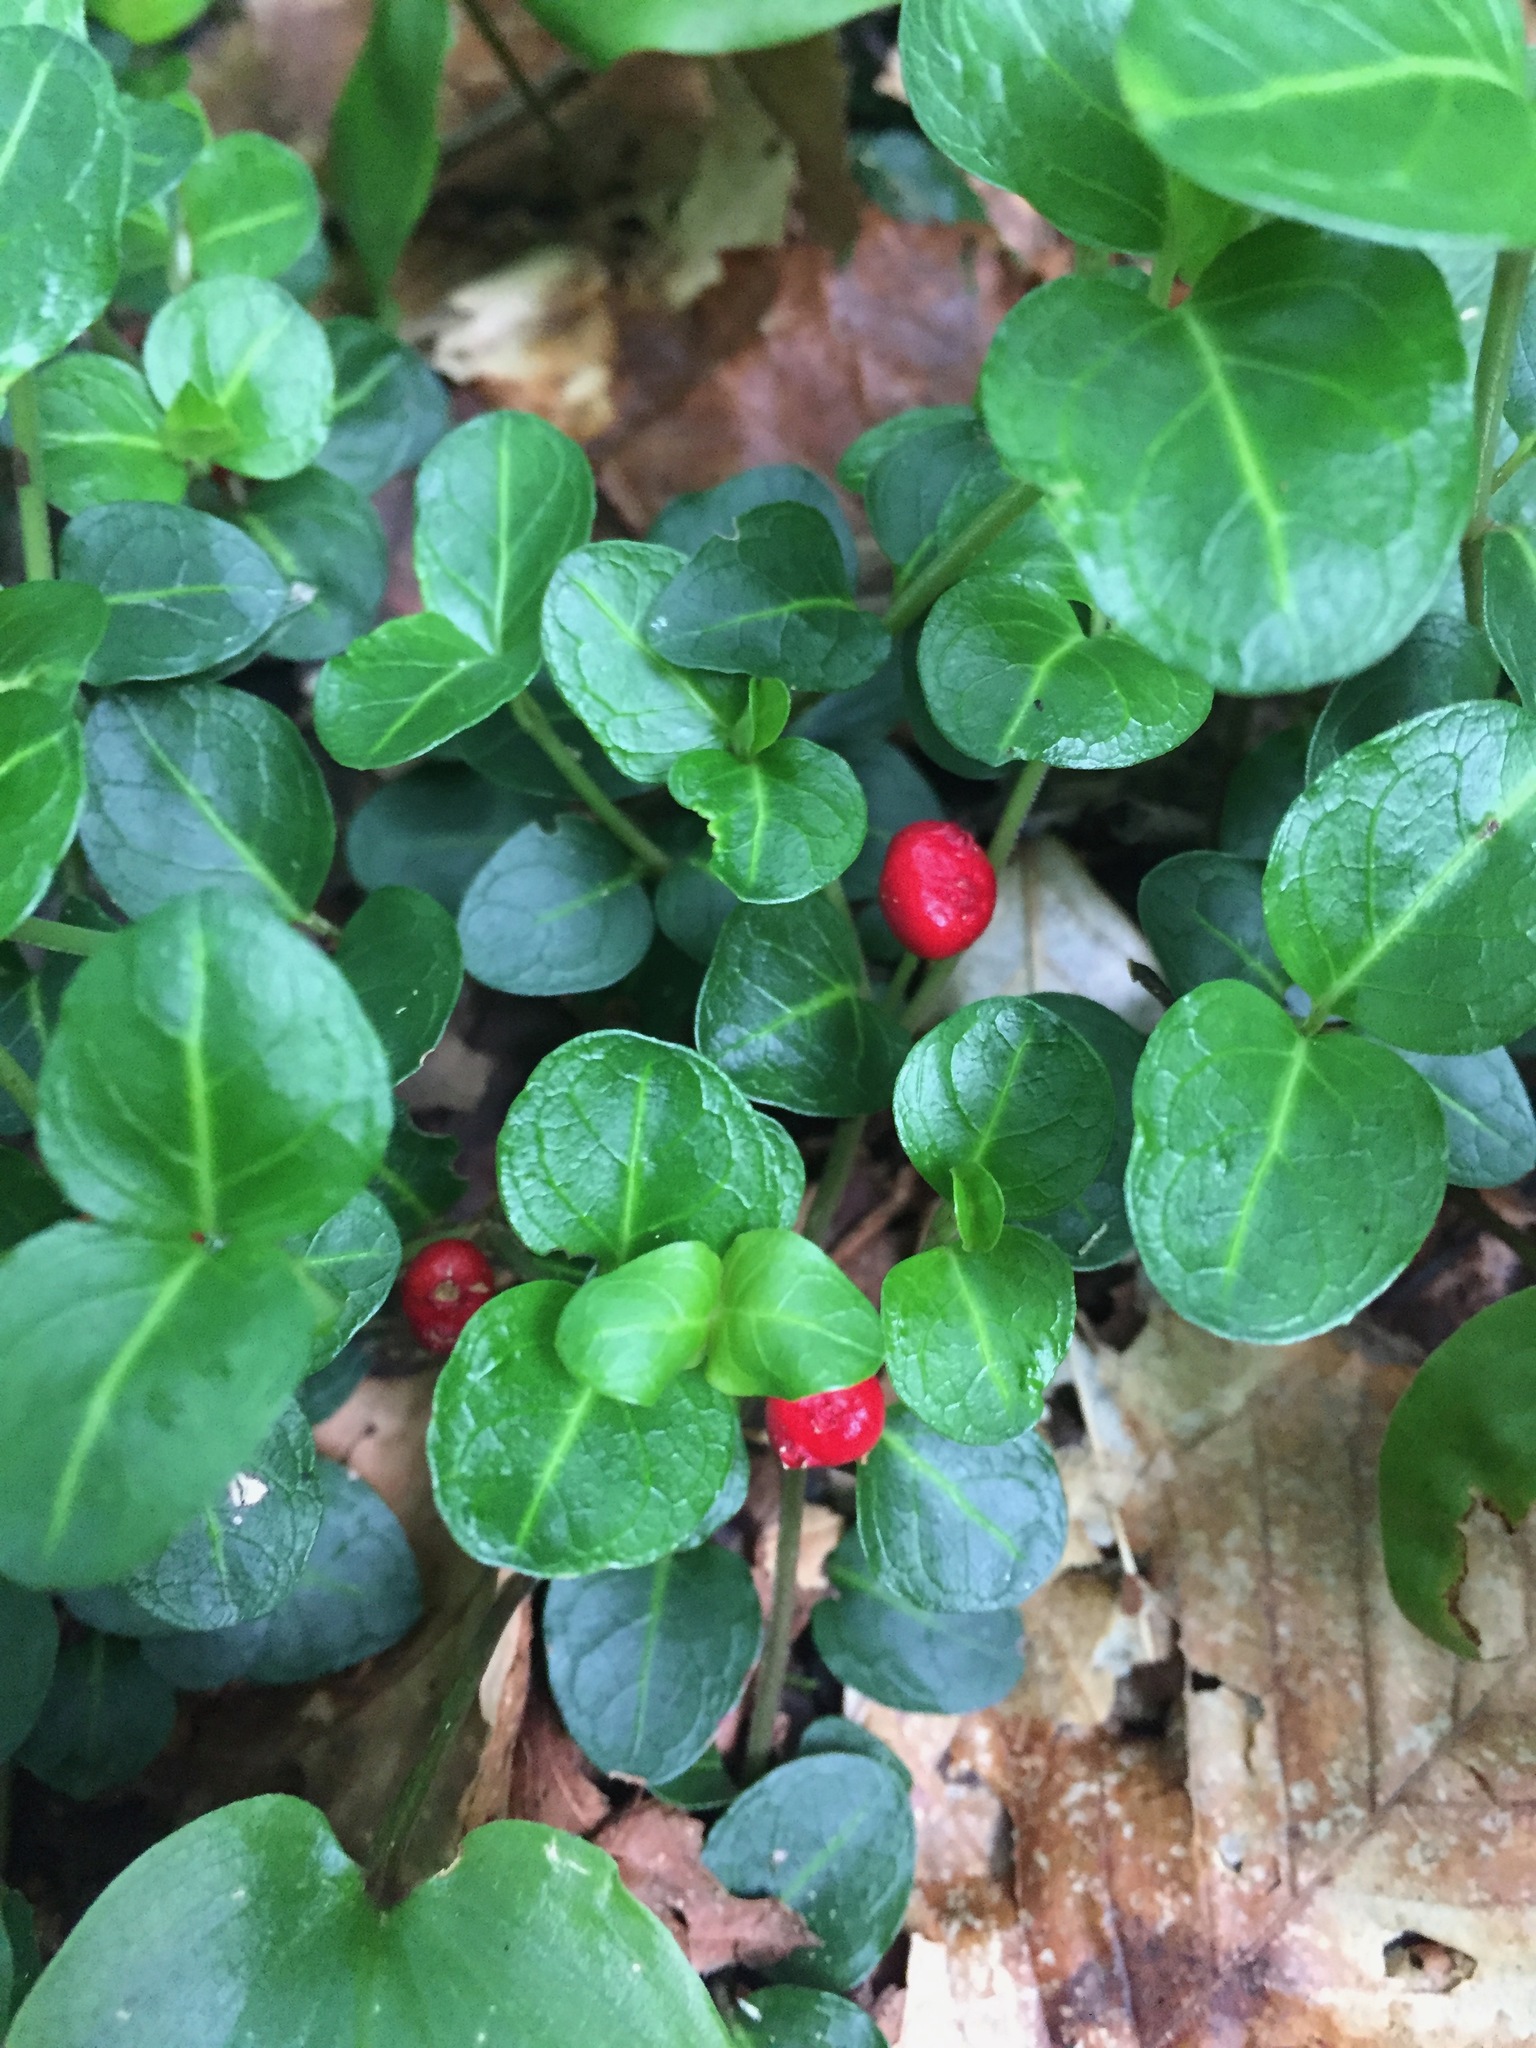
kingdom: Plantae
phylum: Tracheophyta
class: Magnoliopsida
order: Gentianales
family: Rubiaceae
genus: Mitchella
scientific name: Mitchella repens
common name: Partridge-berry
